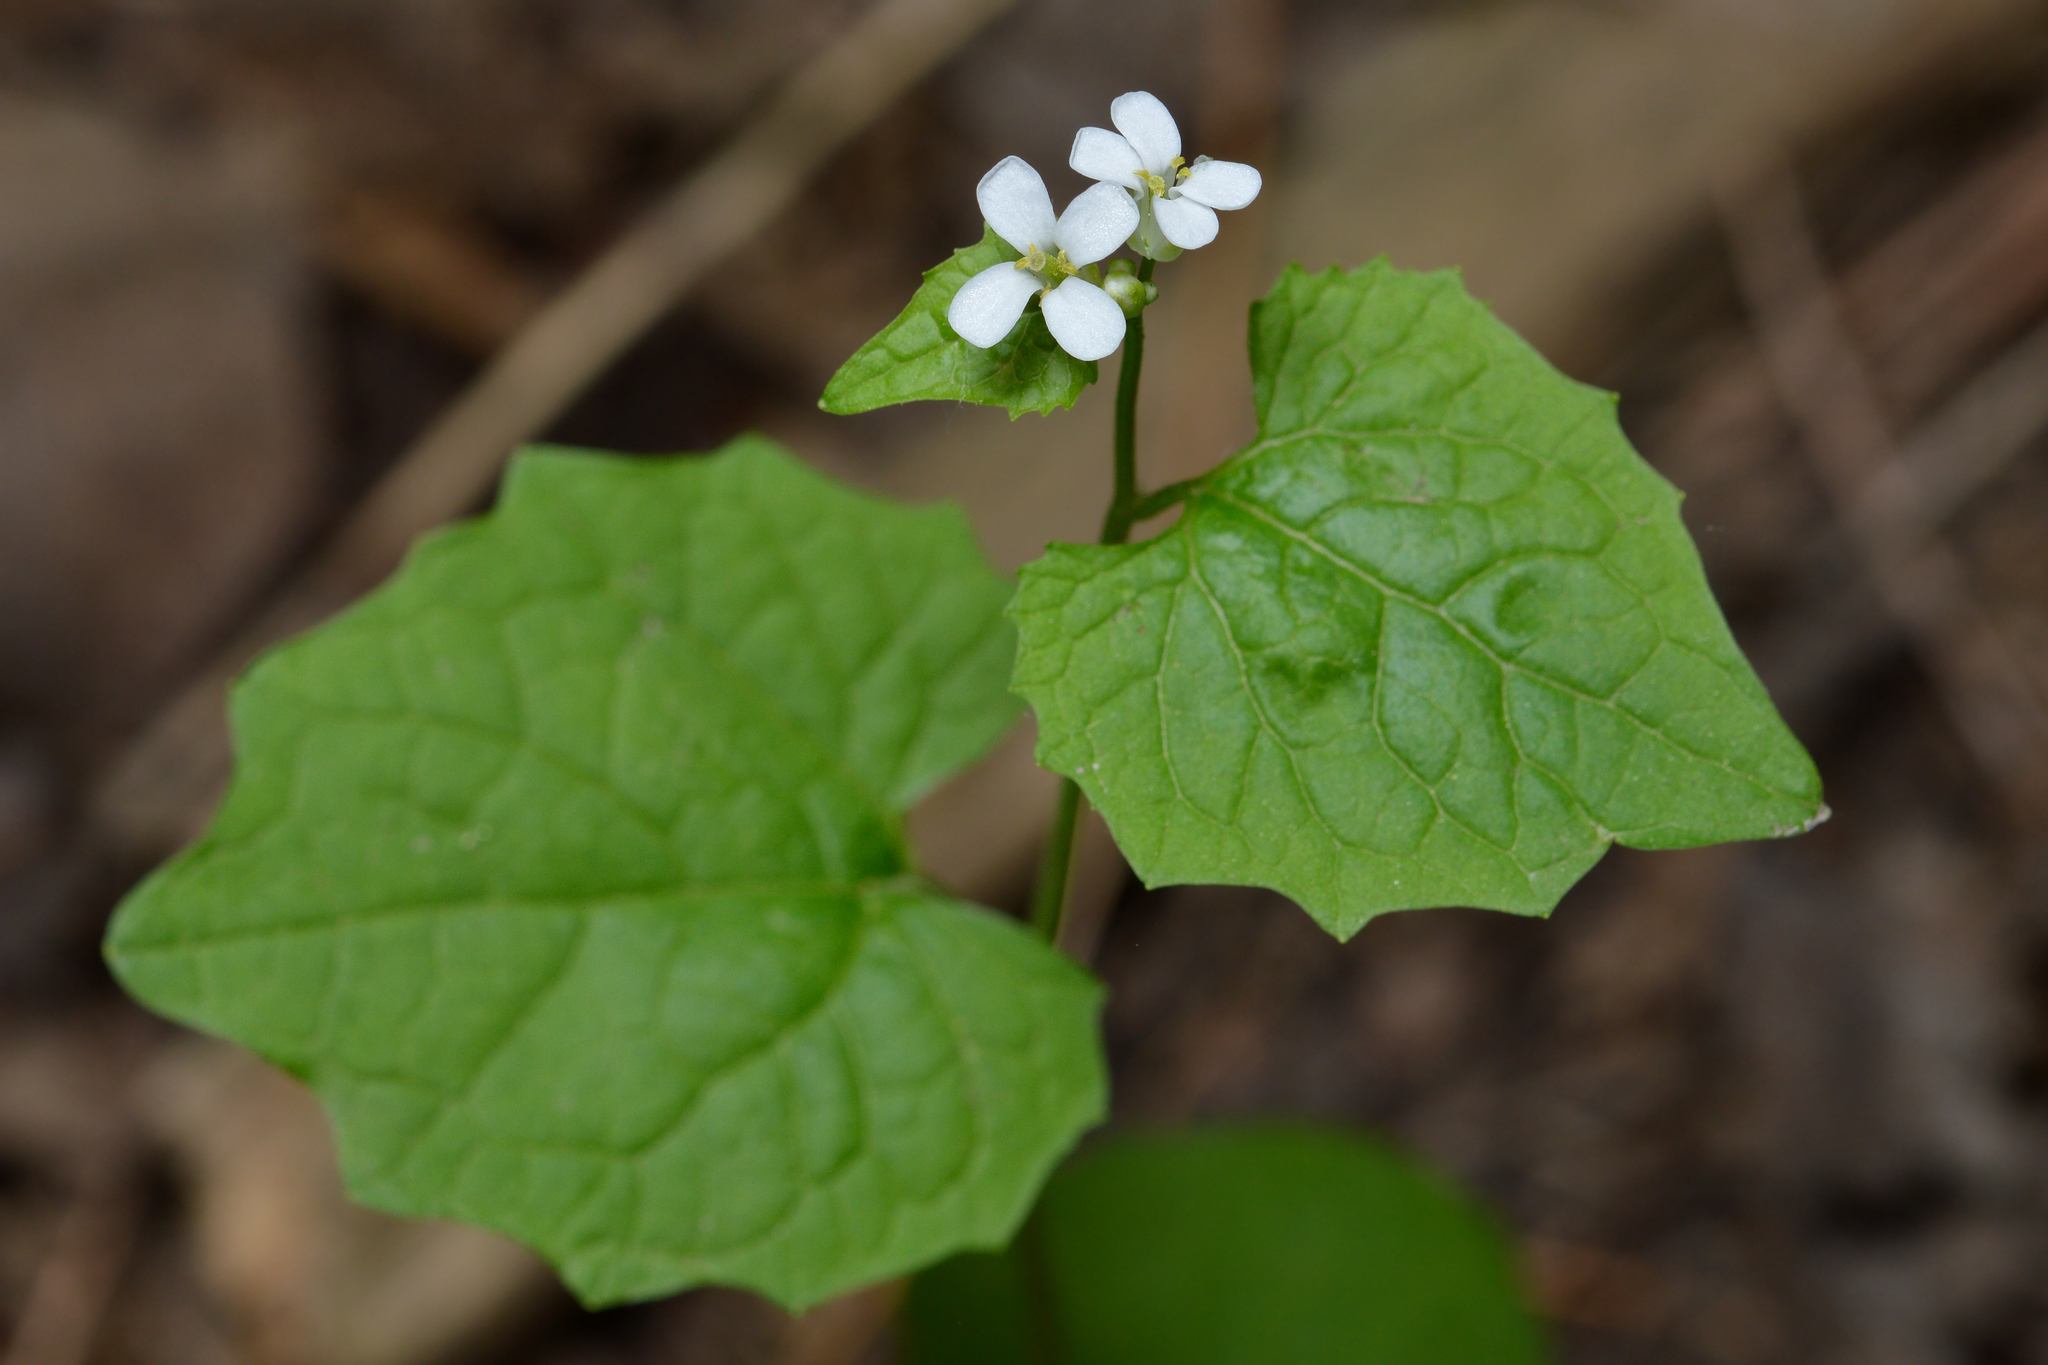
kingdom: Plantae
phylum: Tracheophyta
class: Magnoliopsida
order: Brassicales
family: Brassicaceae
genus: Alliaria
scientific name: Alliaria petiolata
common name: Garlic mustard
